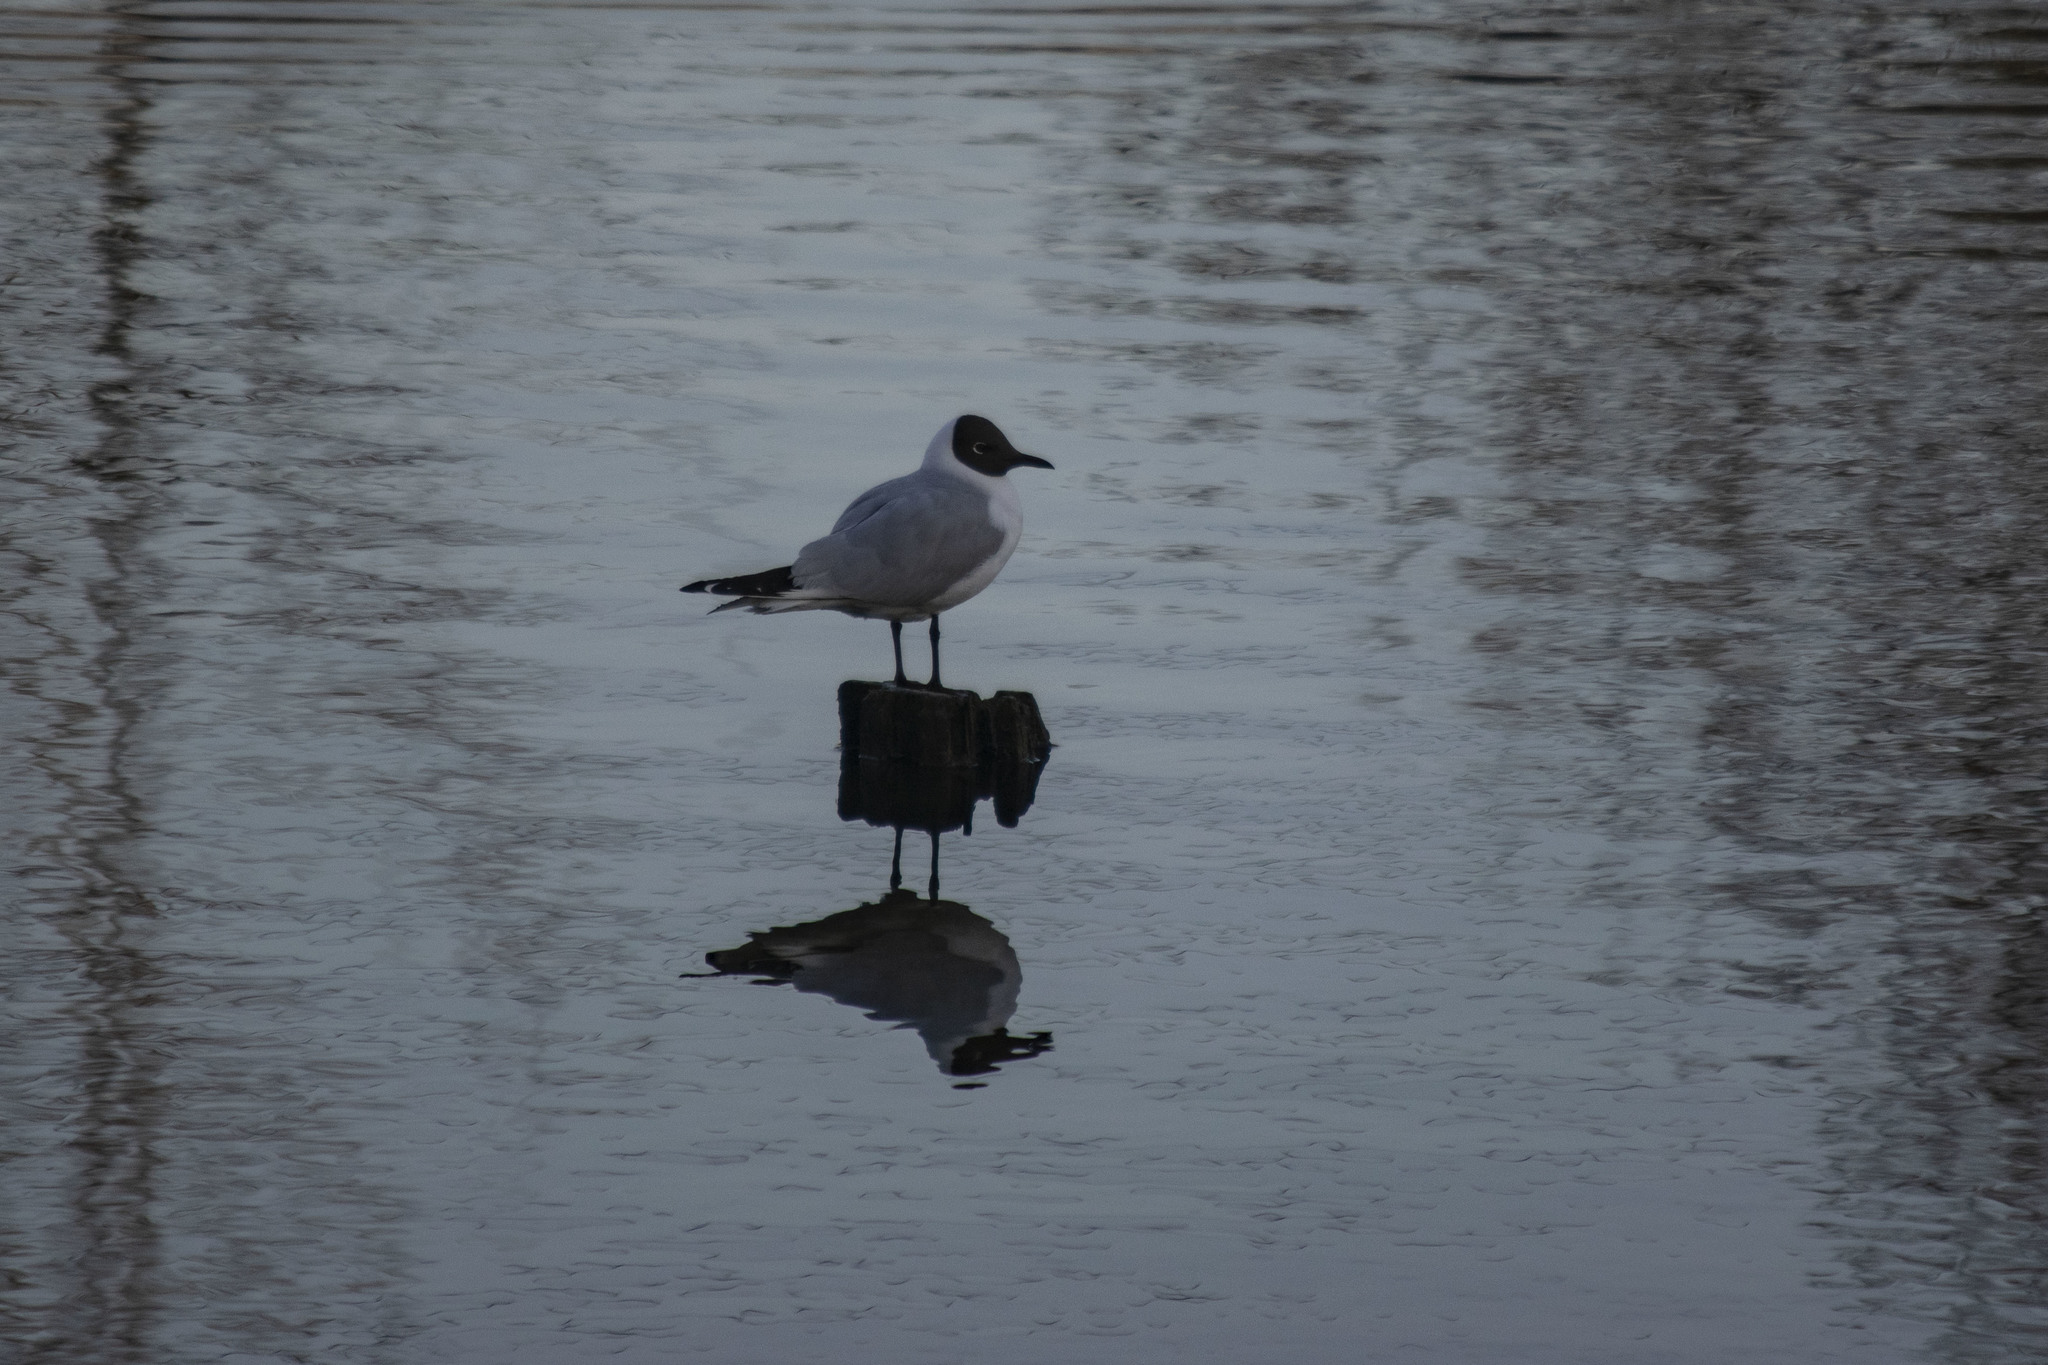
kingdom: Animalia
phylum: Chordata
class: Aves
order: Charadriiformes
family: Laridae
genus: Chroicocephalus
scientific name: Chroicocephalus ridibundus
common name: Black-headed gull
